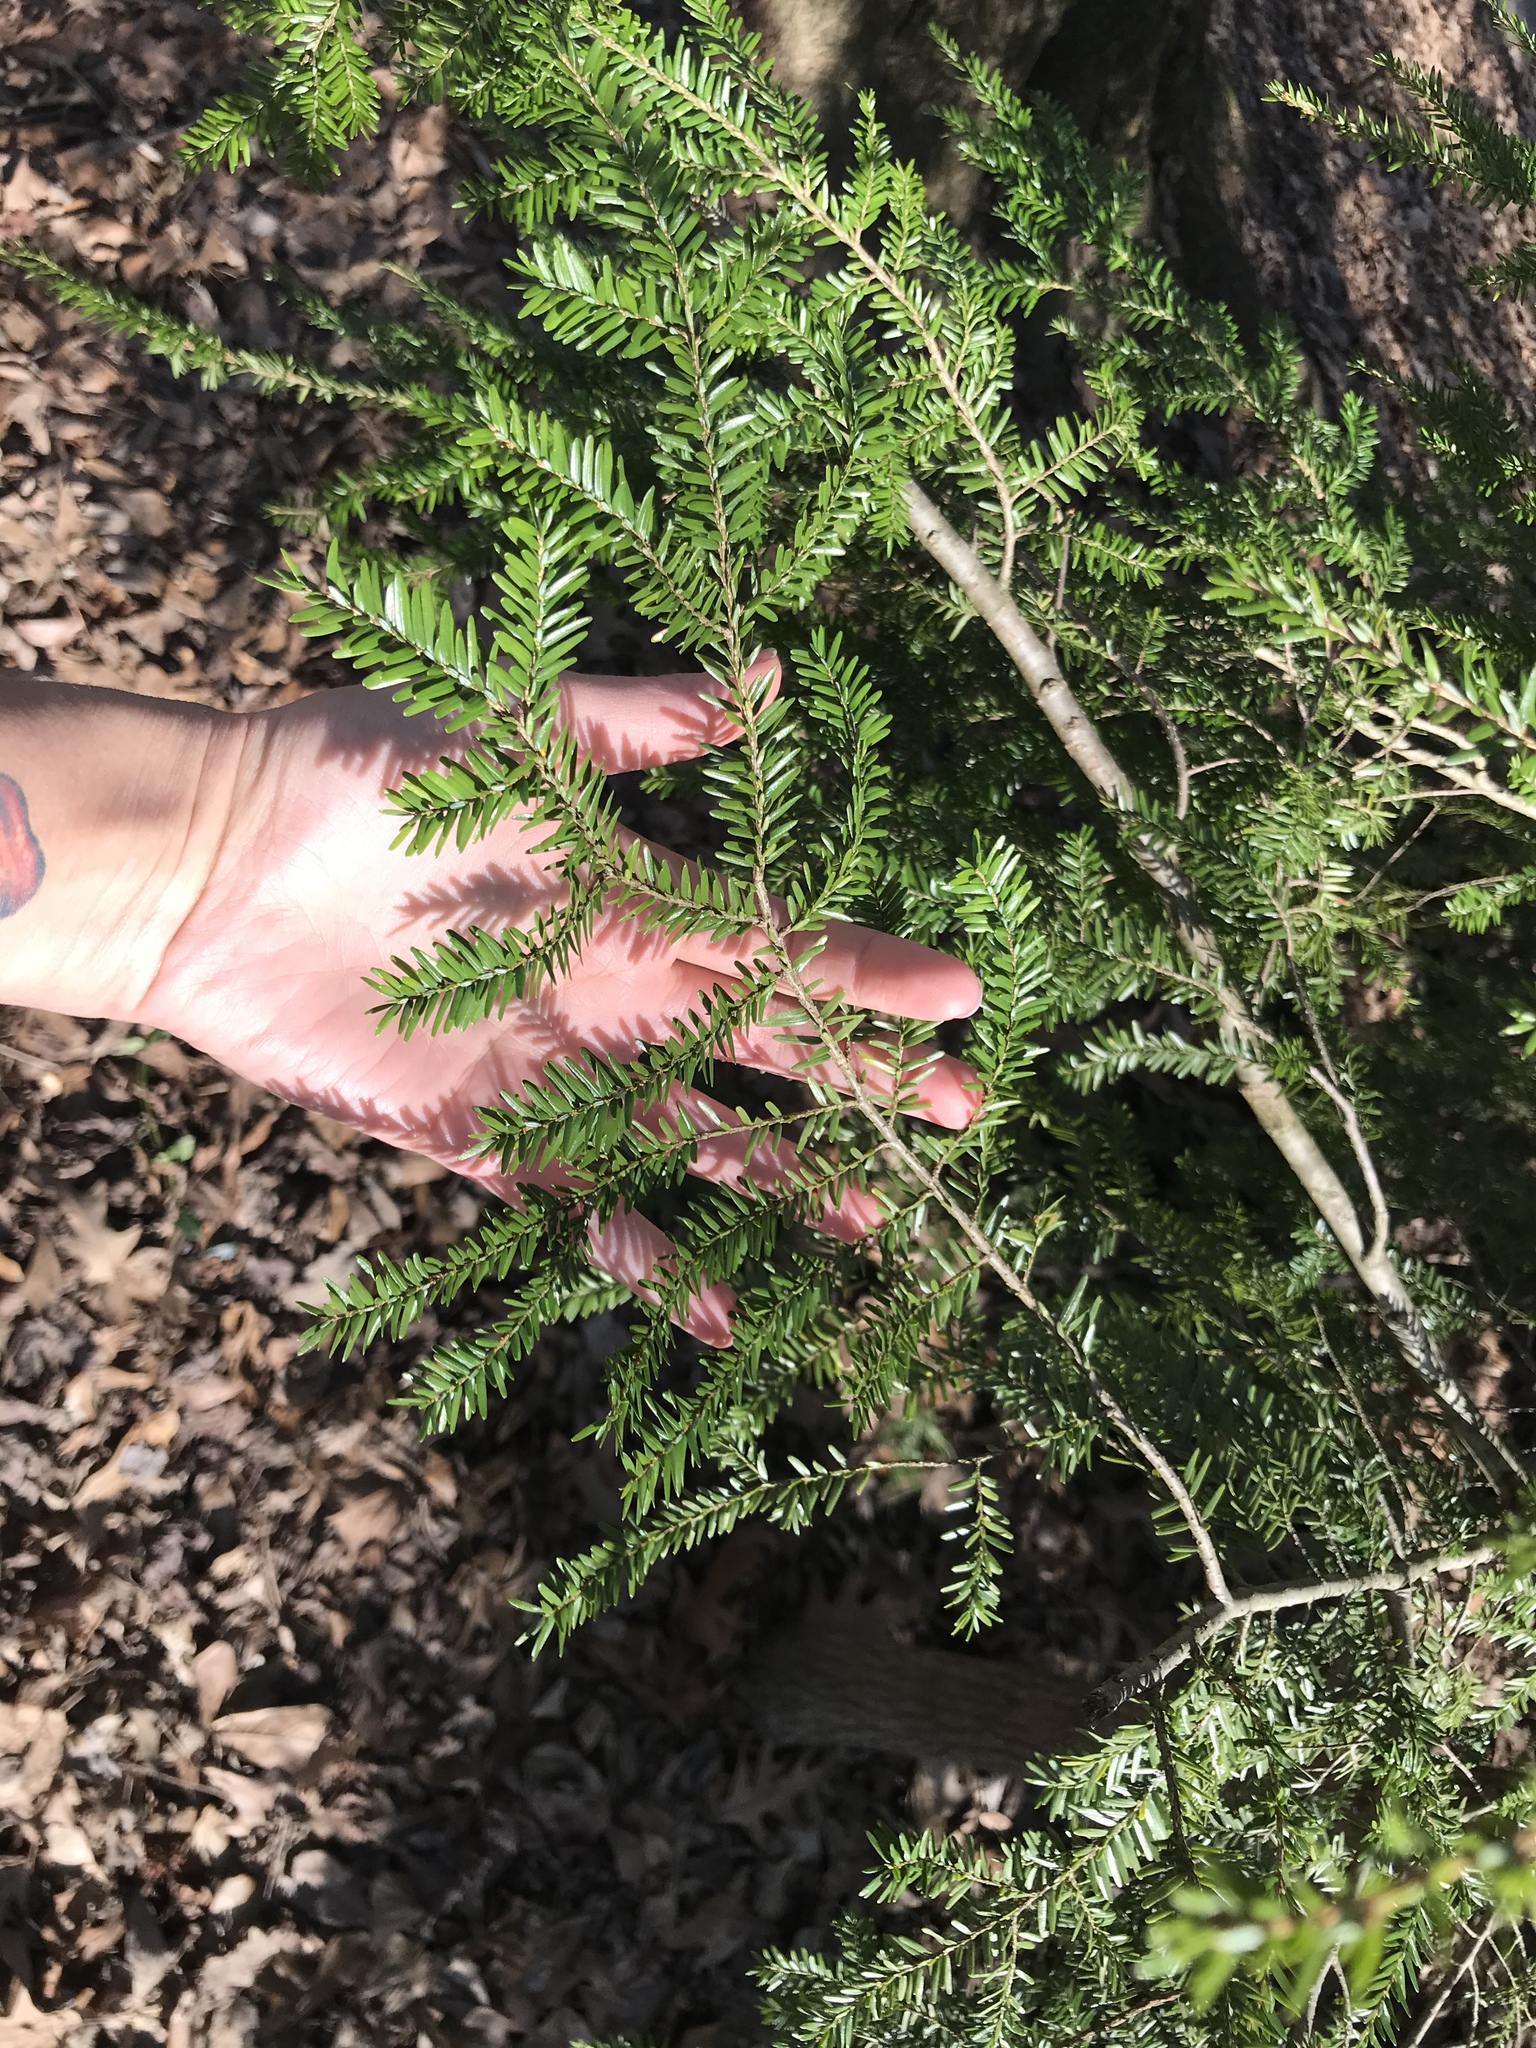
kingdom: Plantae
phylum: Tracheophyta
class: Pinopsida
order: Pinales
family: Pinaceae
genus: Tsuga
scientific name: Tsuga canadensis
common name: Eastern hemlock
